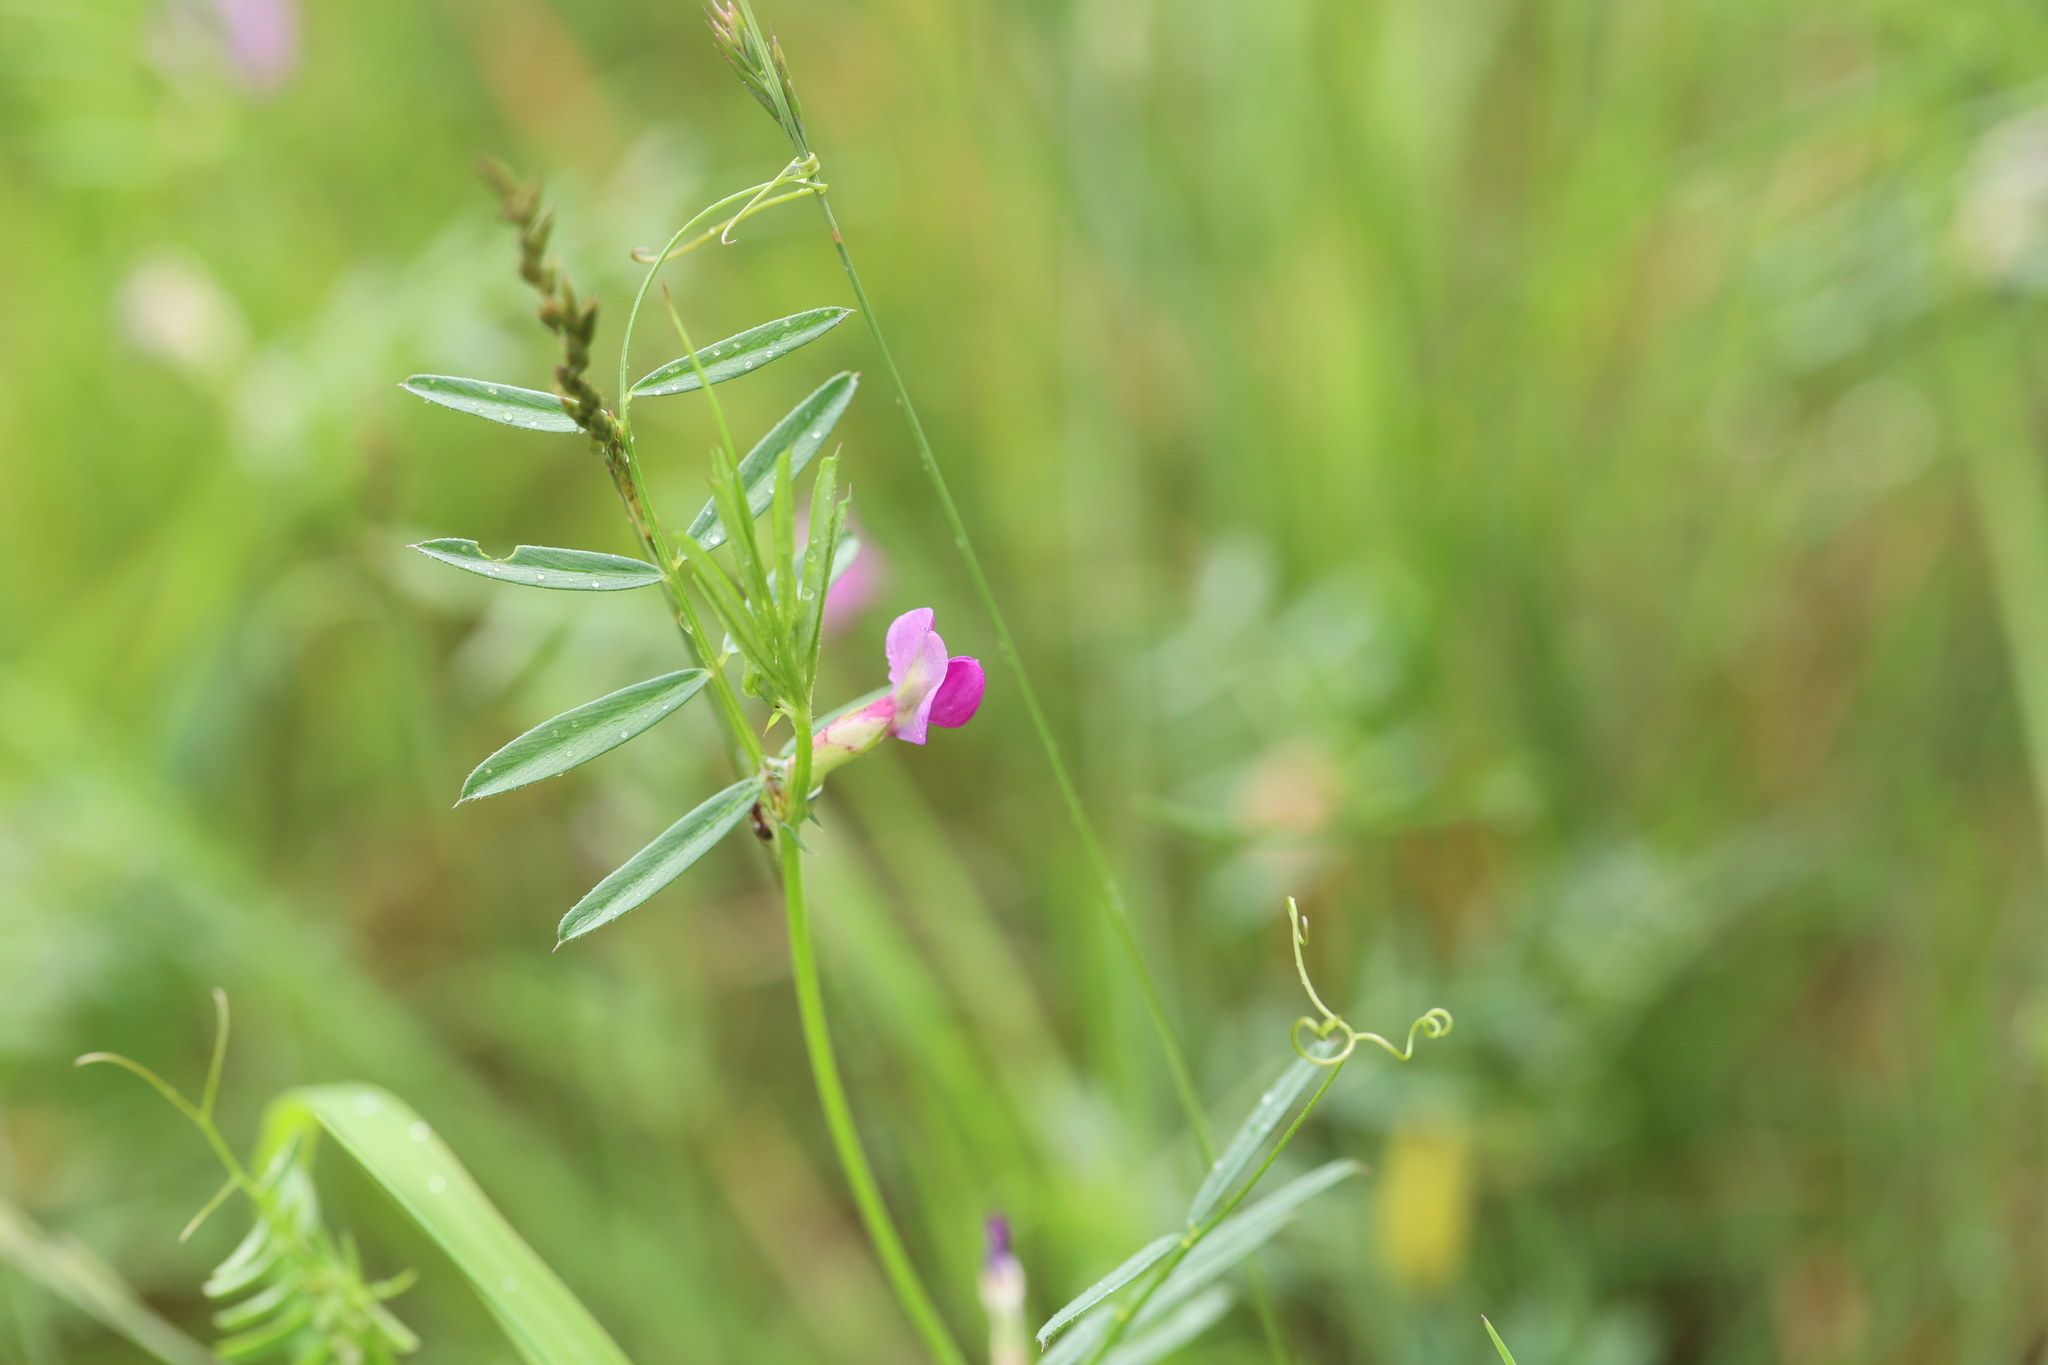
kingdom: Plantae
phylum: Tracheophyta
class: Magnoliopsida
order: Fabales
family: Fabaceae
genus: Vicia
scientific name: Vicia sativa
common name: Garden vetch
